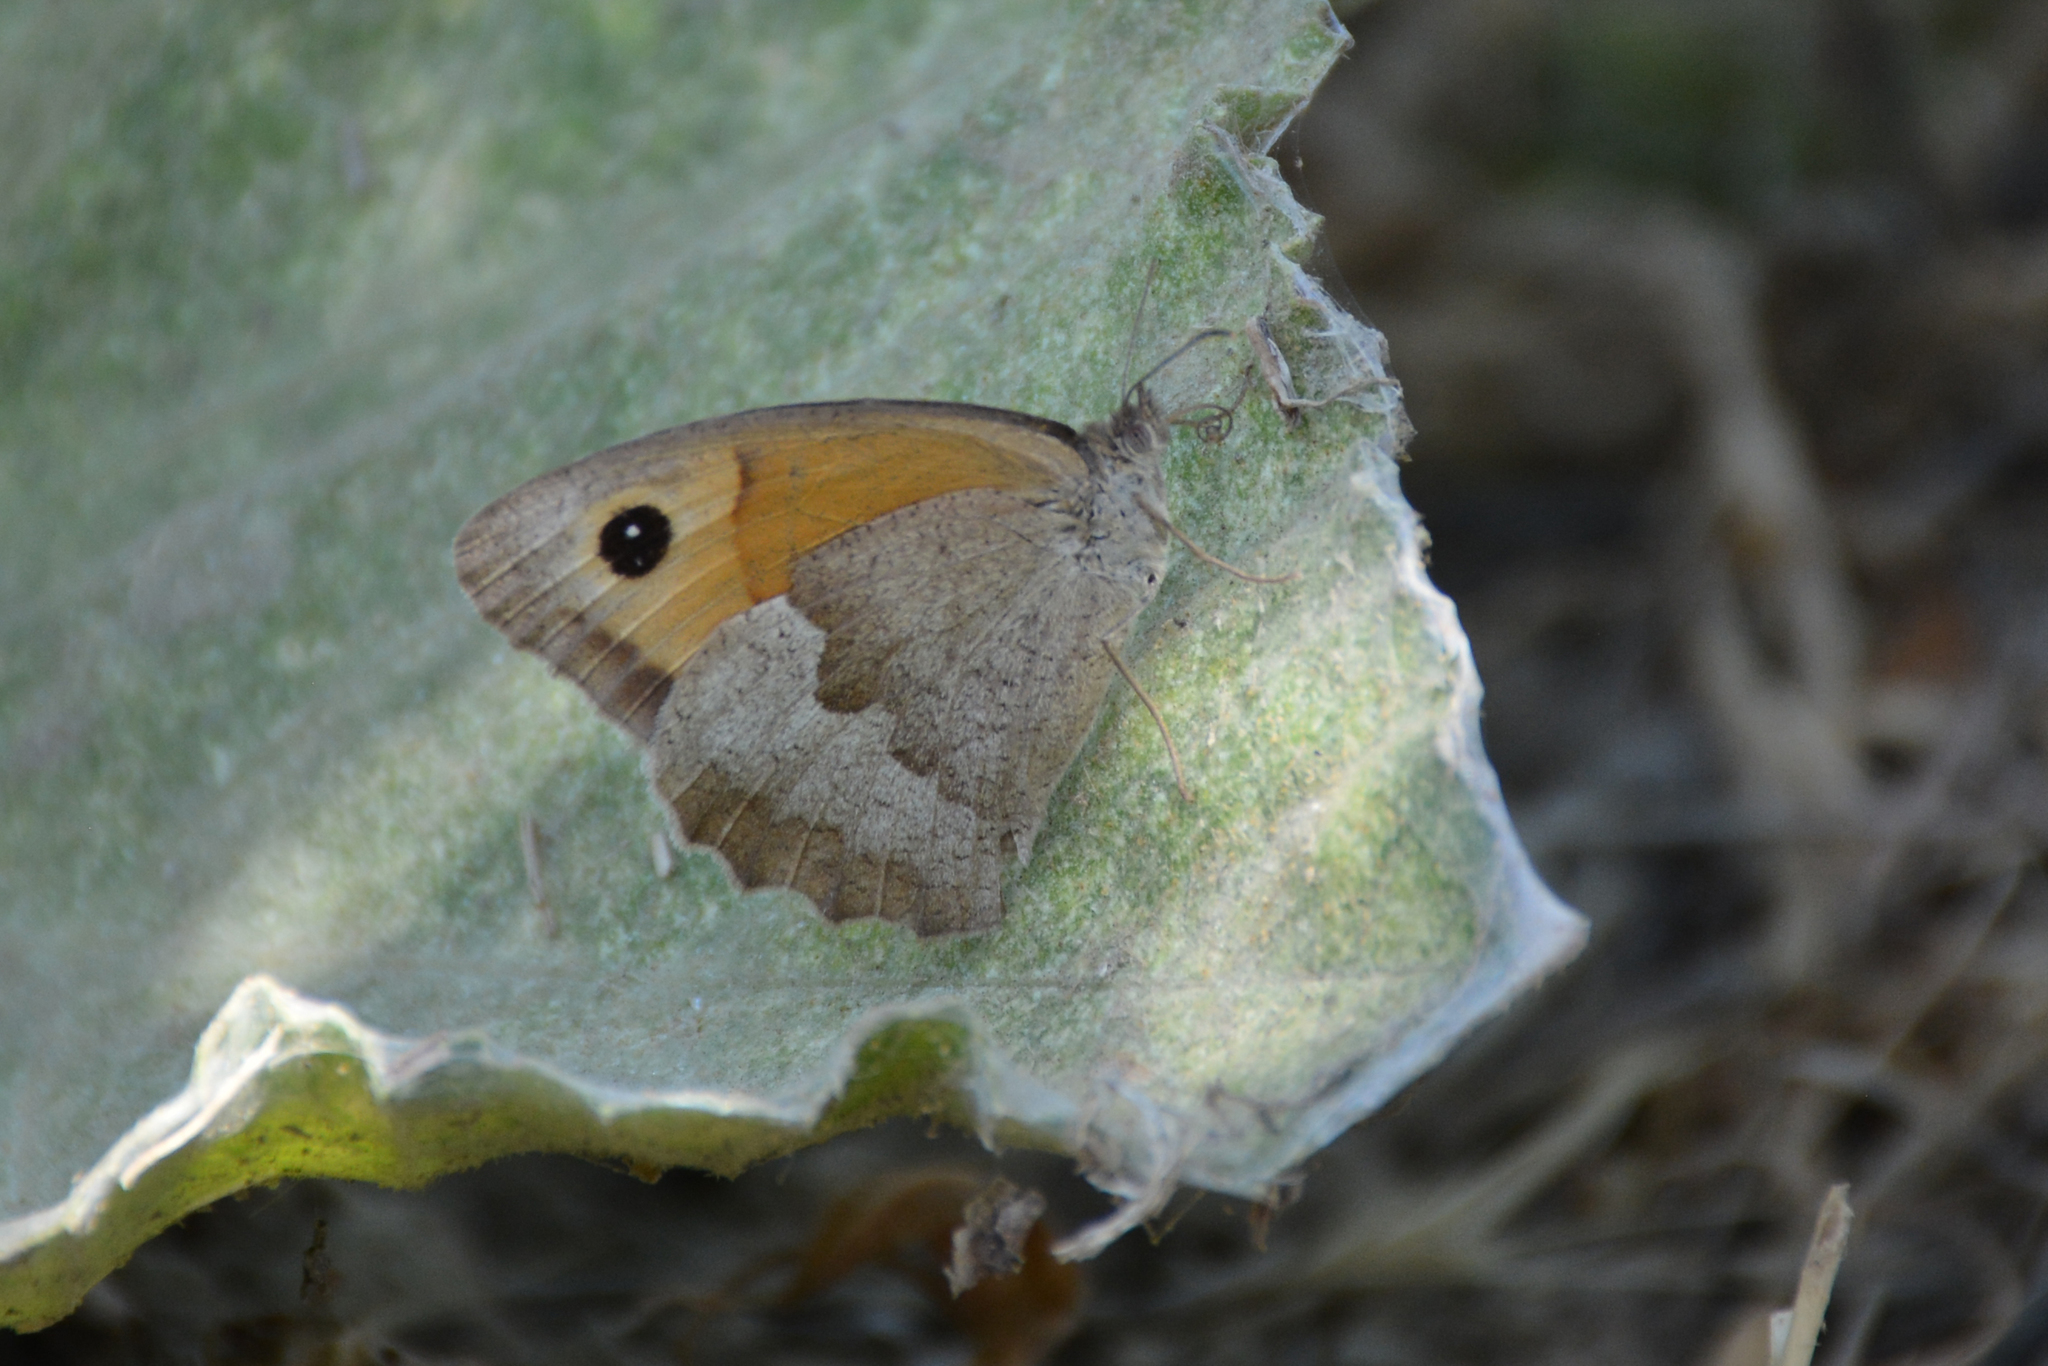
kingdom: Animalia
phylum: Arthropoda
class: Insecta
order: Lepidoptera
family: Nymphalidae
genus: Maniola
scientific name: Maniola jurtina
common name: Meadow brown
